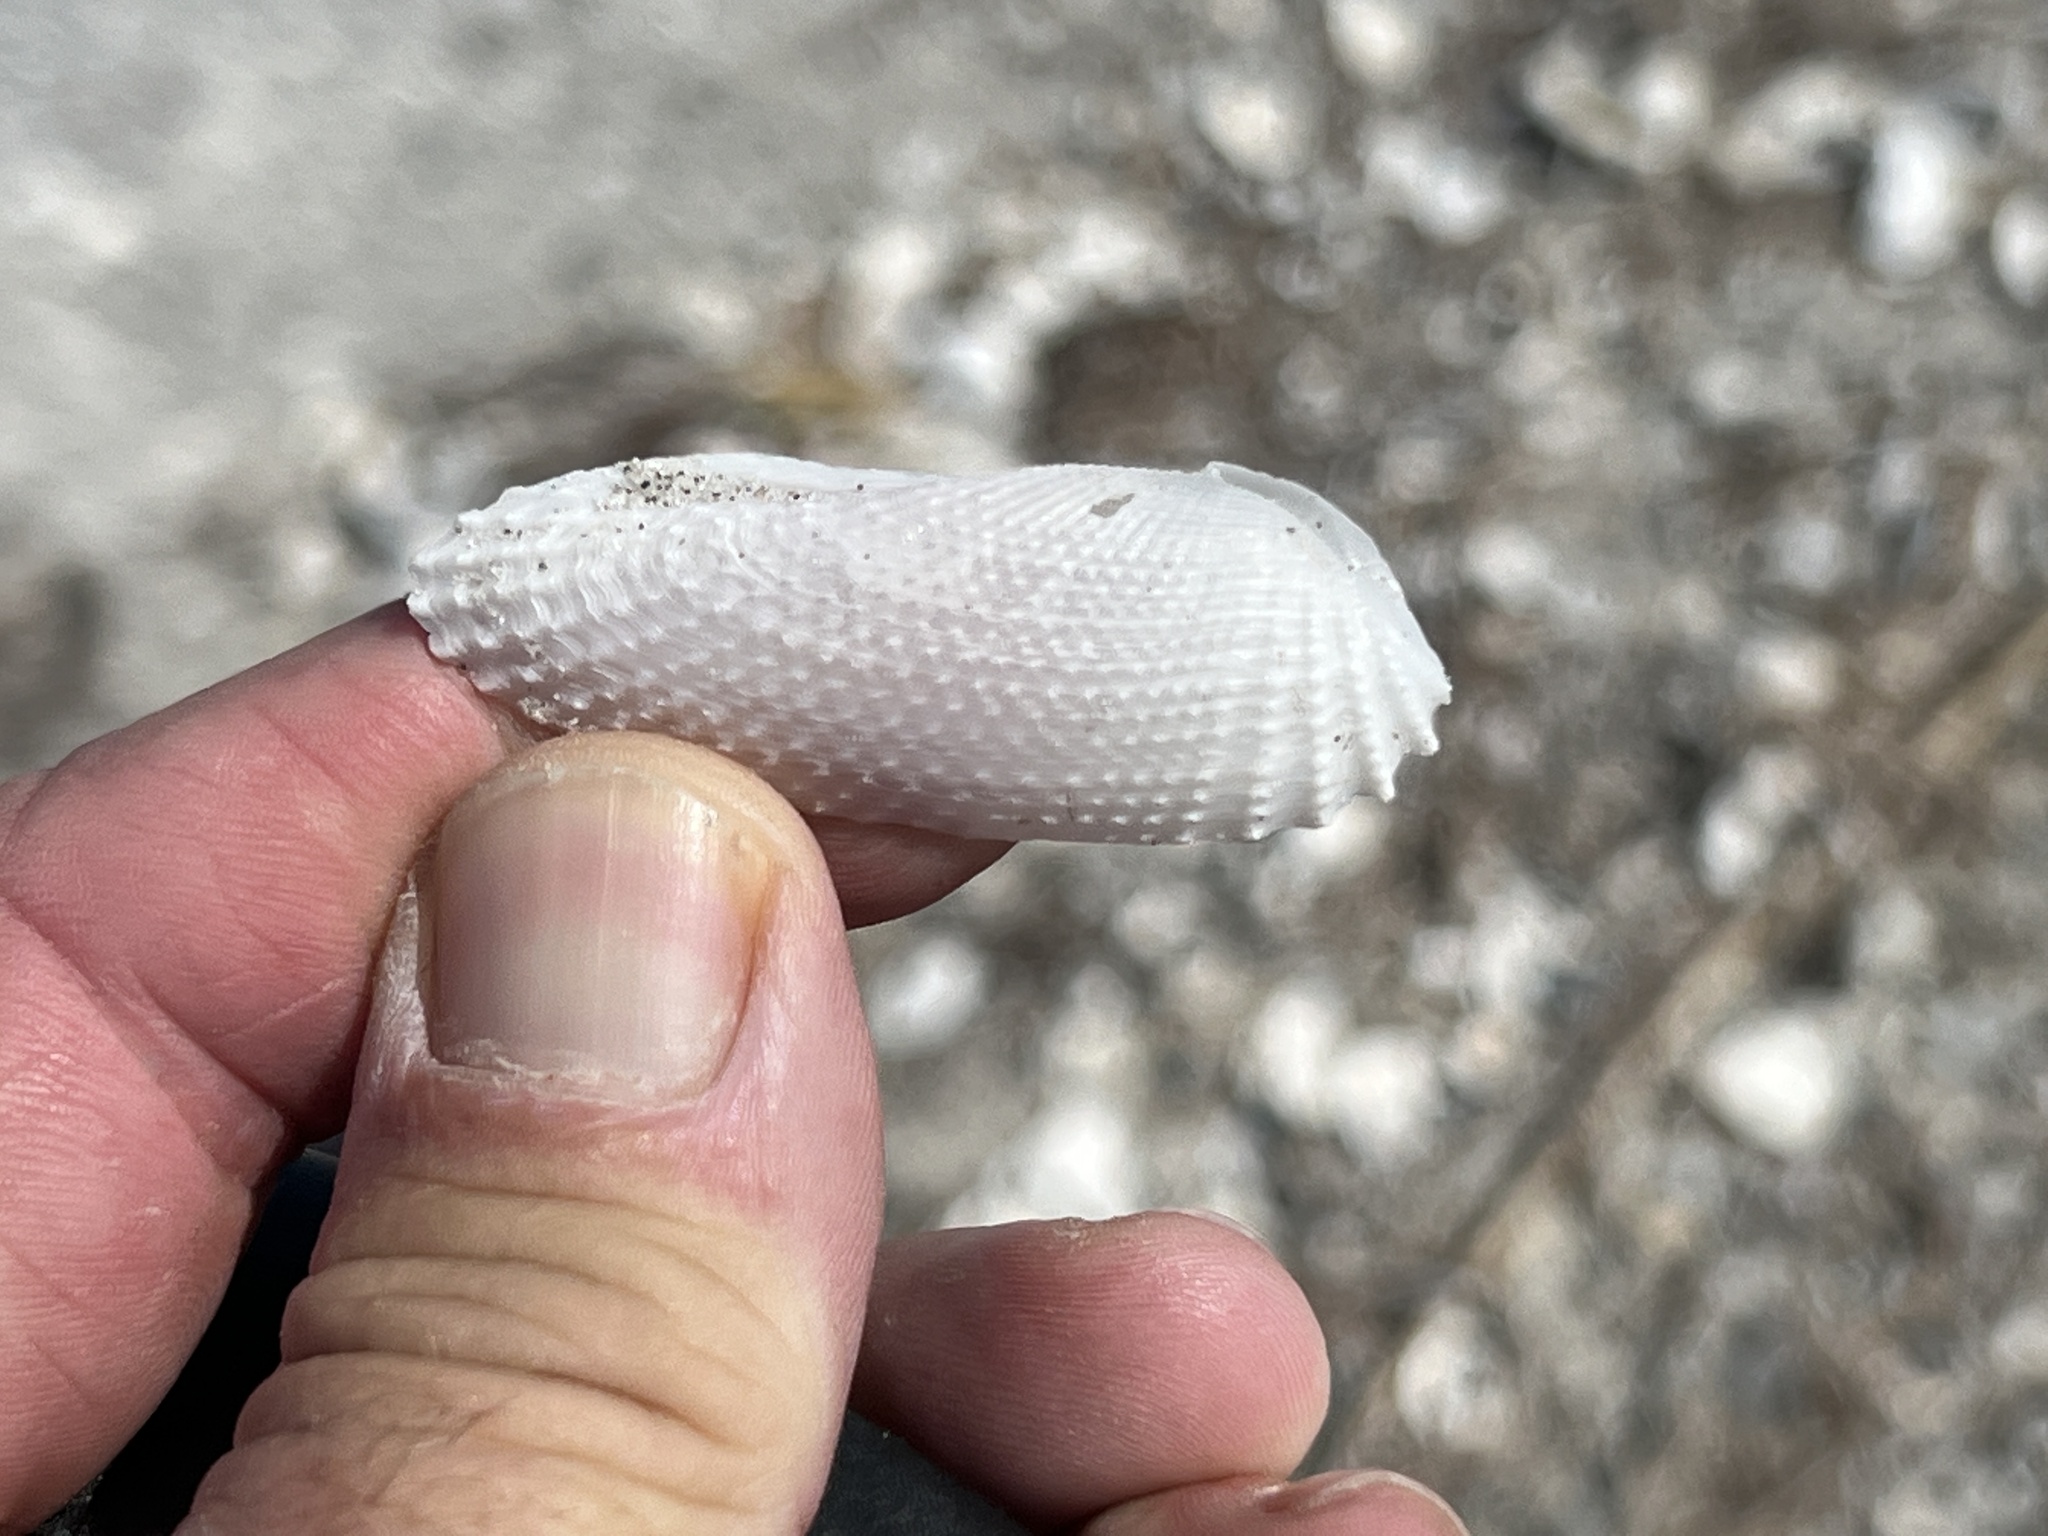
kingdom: Animalia
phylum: Mollusca
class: Bivalvia
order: Myida
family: Pholadidae
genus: Cyrtopleura
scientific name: Cyrtopleura costata
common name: Angel wing
